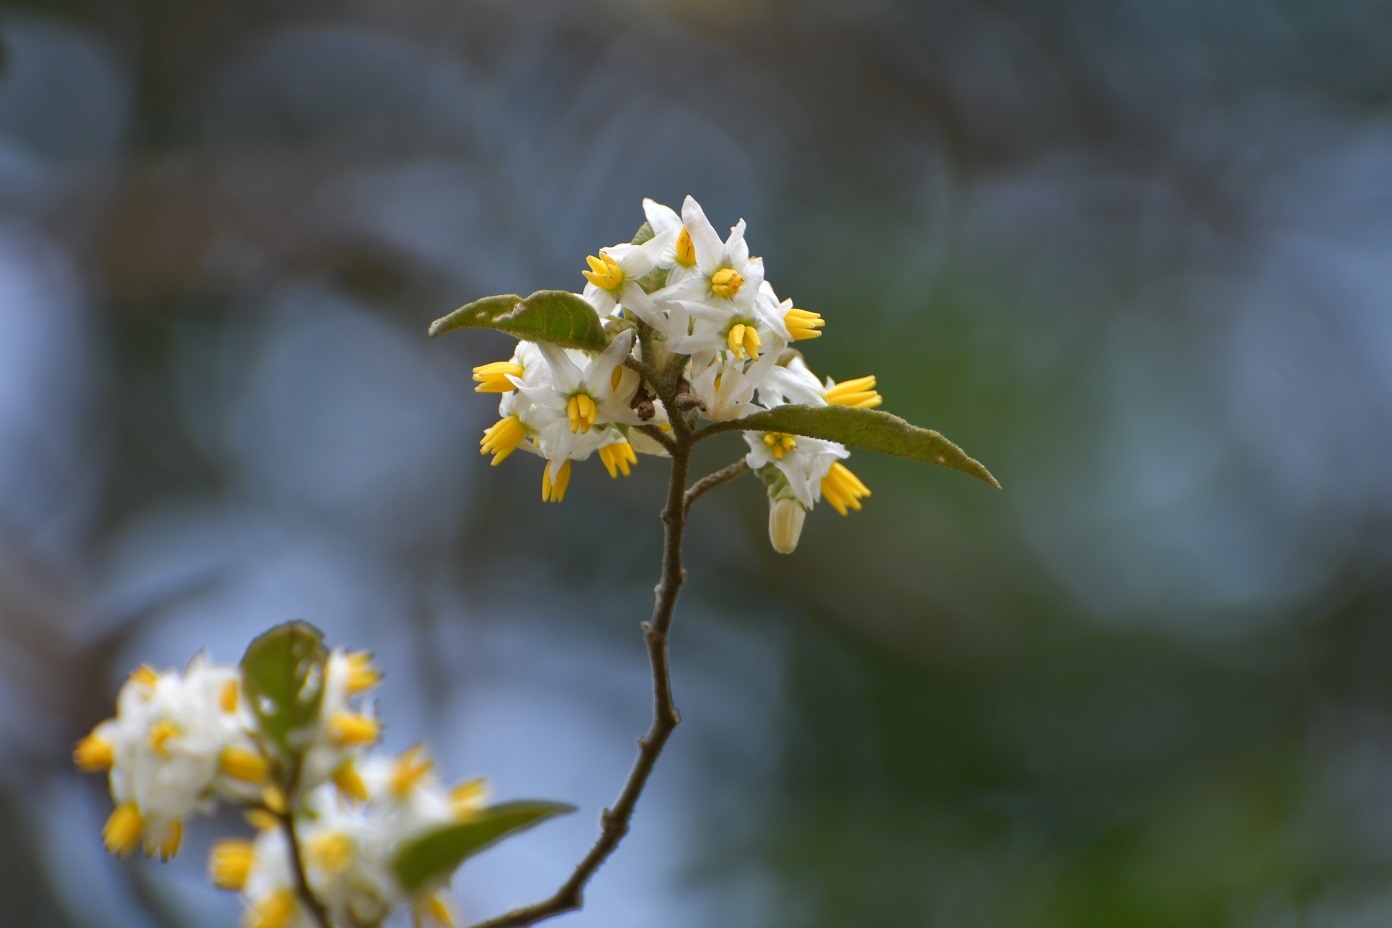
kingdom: Plantae
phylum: Tracheophyta
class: Magnoliopsida
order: Solanales
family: Solanaceae
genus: Solanum
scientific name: Solanum volubile
